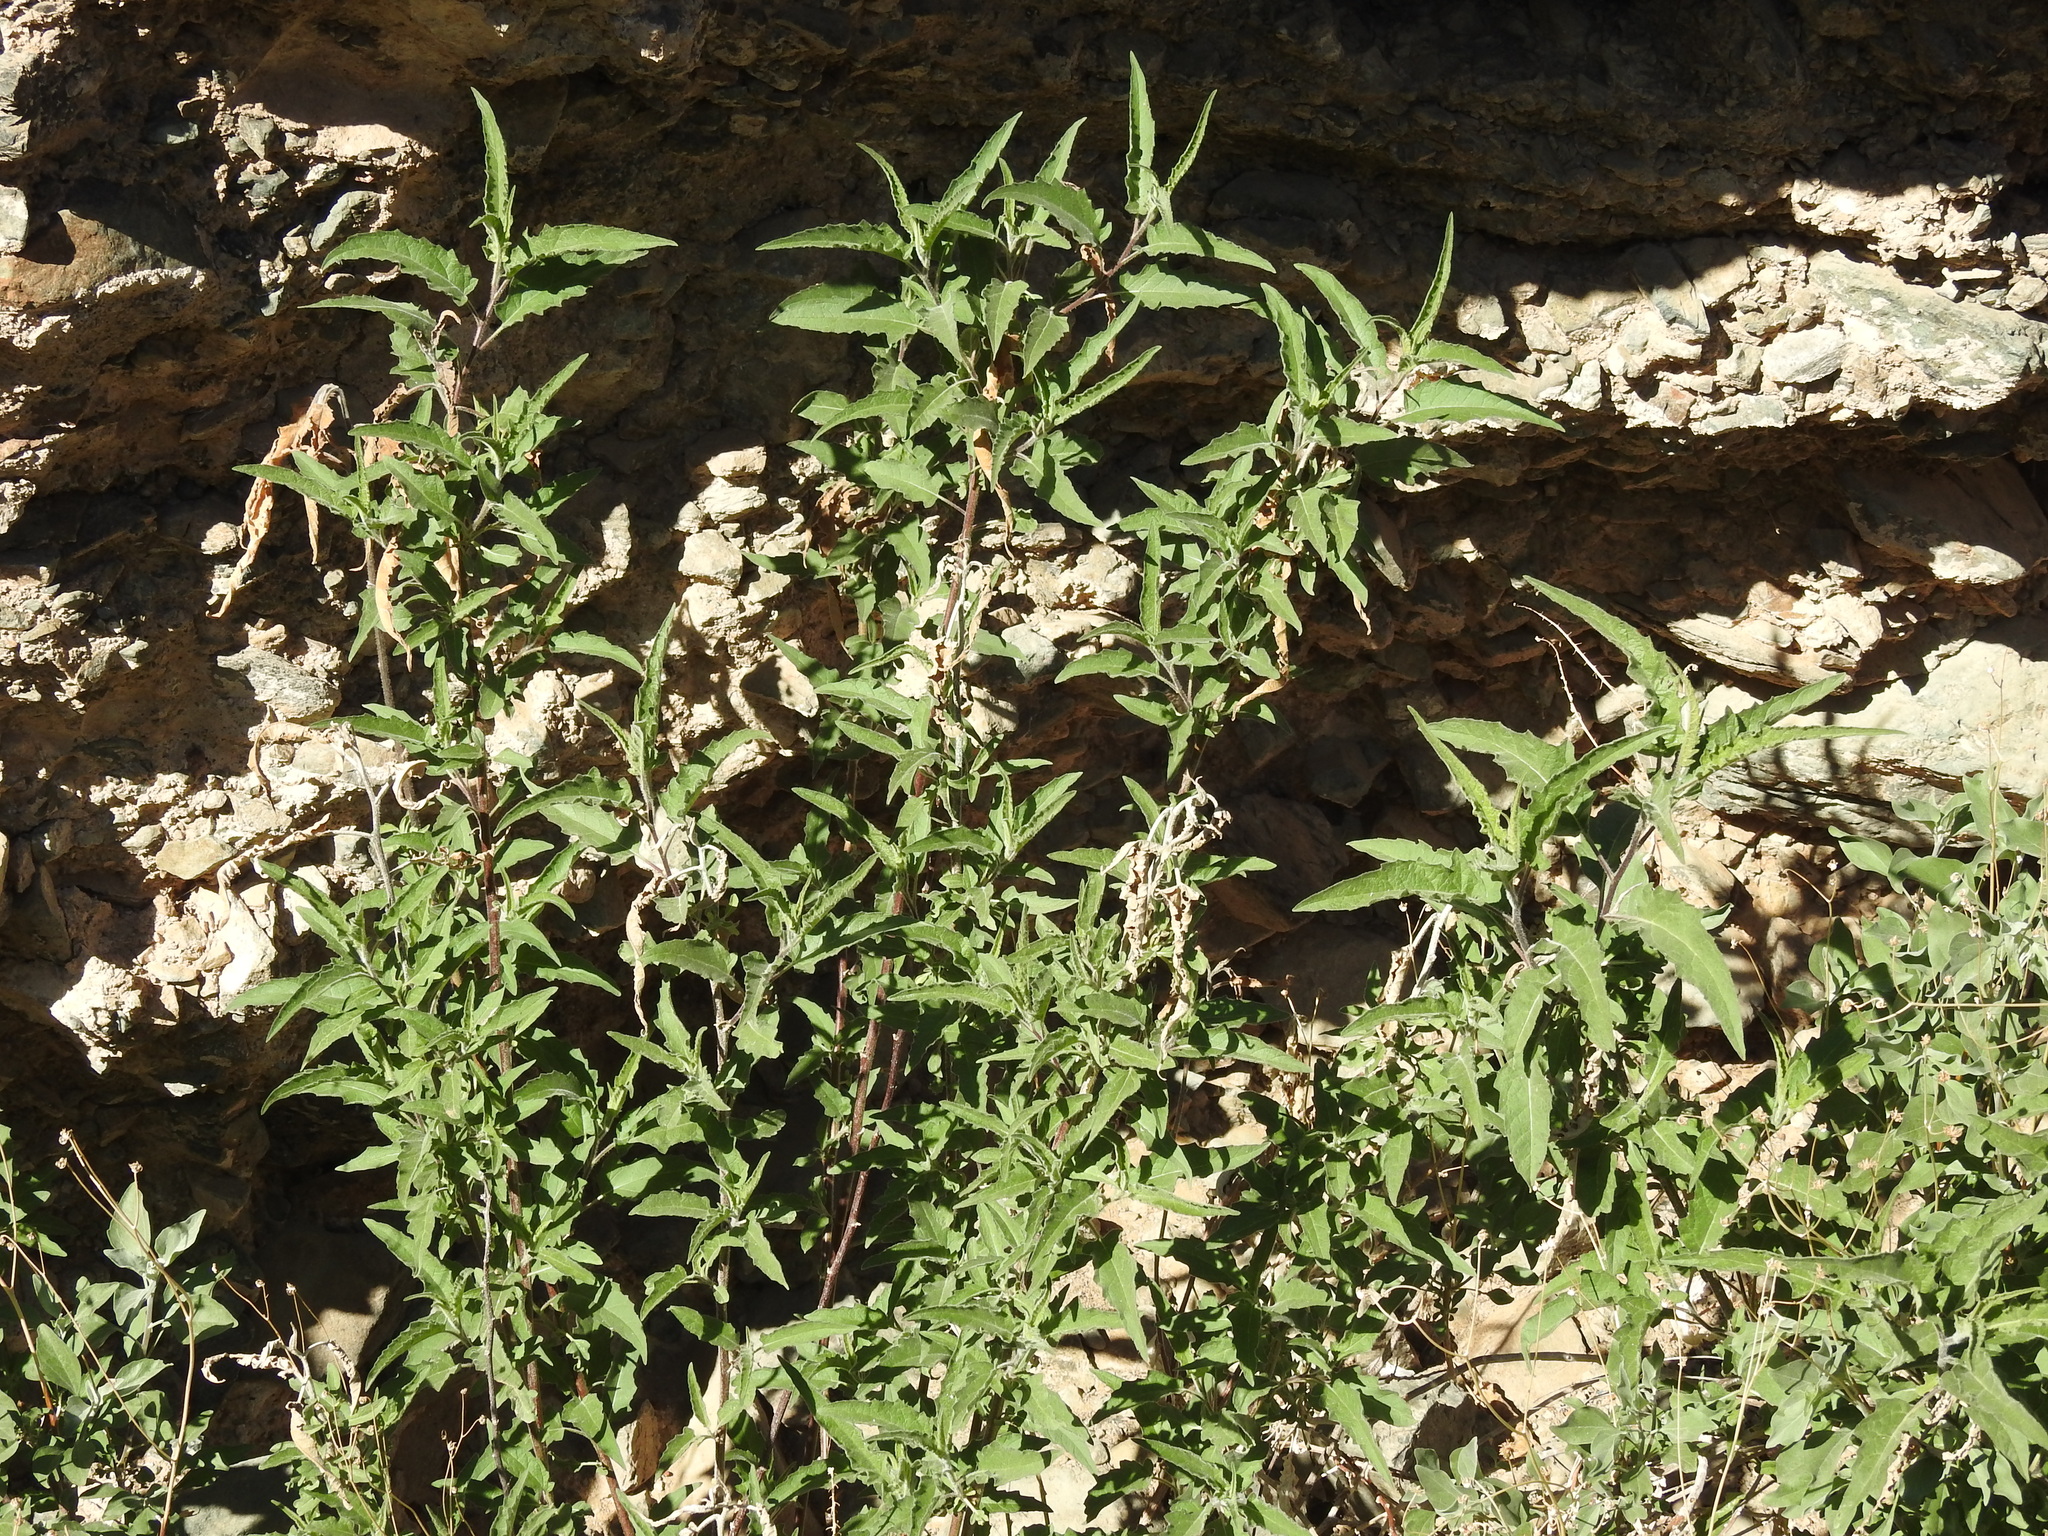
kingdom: Plantae
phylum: Tracheophyta
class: Magnoliopsida
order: Asterales
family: Asteraceae
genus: Ambrosia
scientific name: Ambrosia ambrosioides
